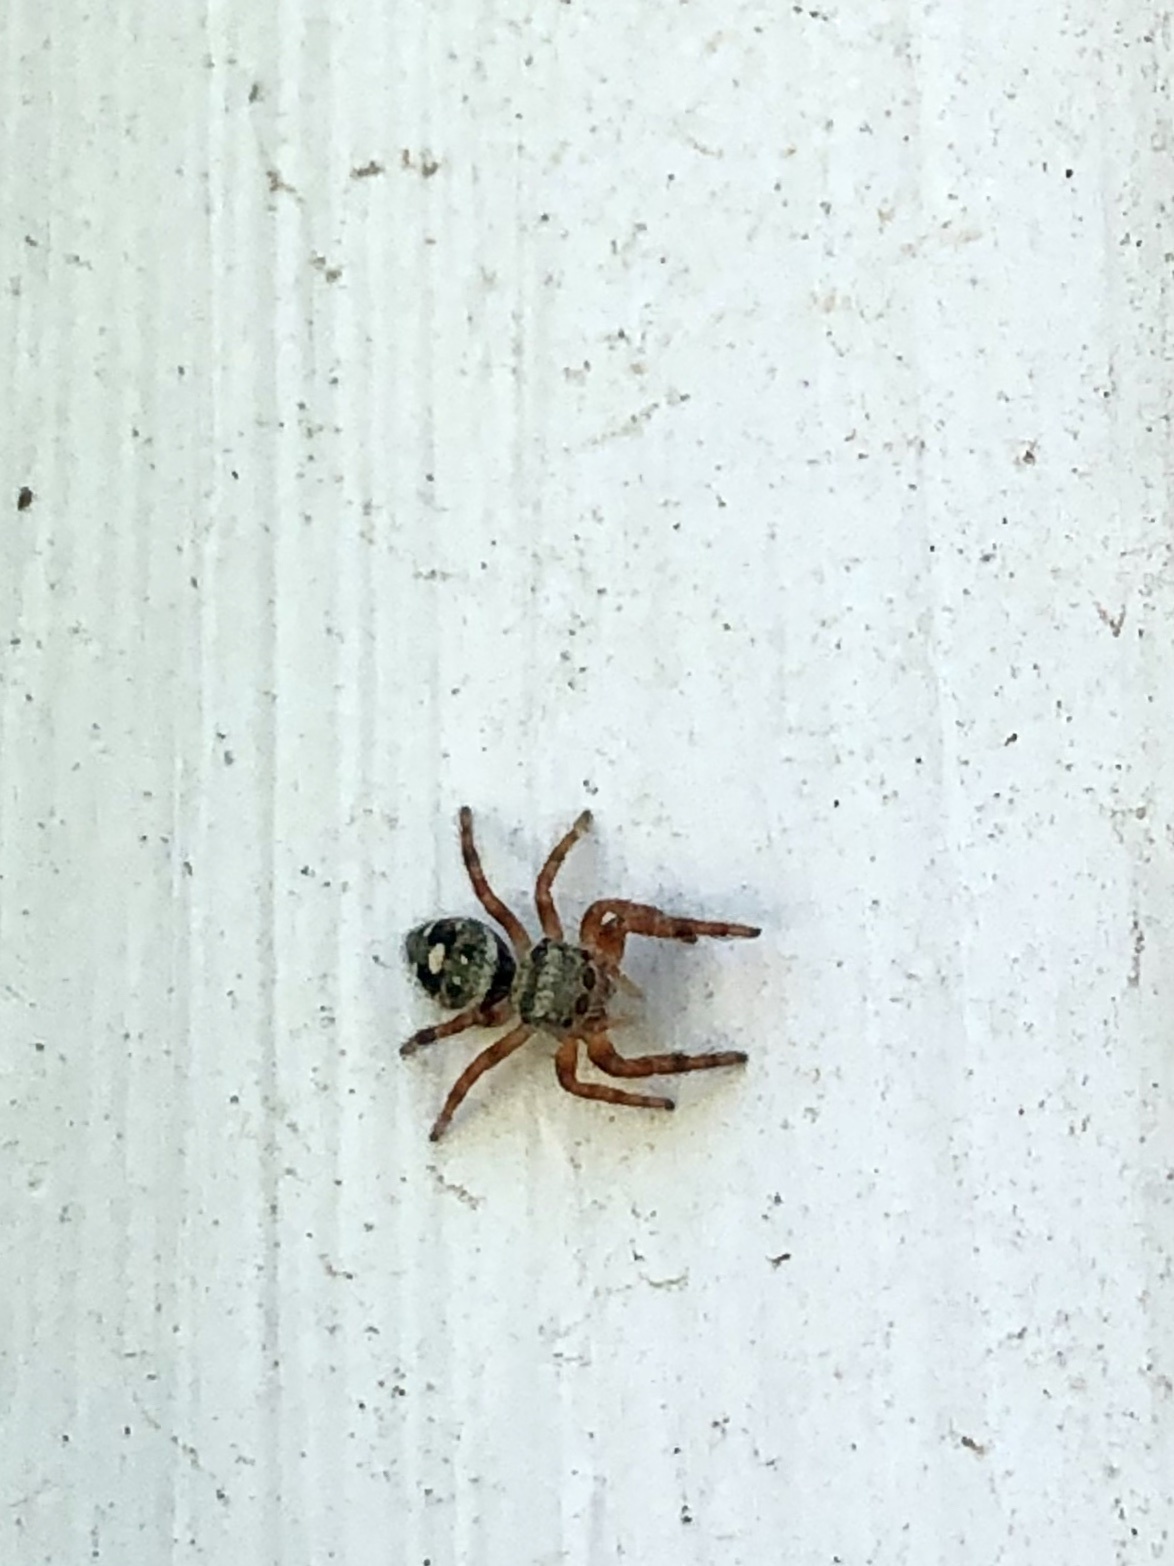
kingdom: Animalia
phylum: Arthropoda
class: Arachnida
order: Araneae
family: Salticidae
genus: Phidippus
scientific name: Phidippus audax
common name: Bold jumper
